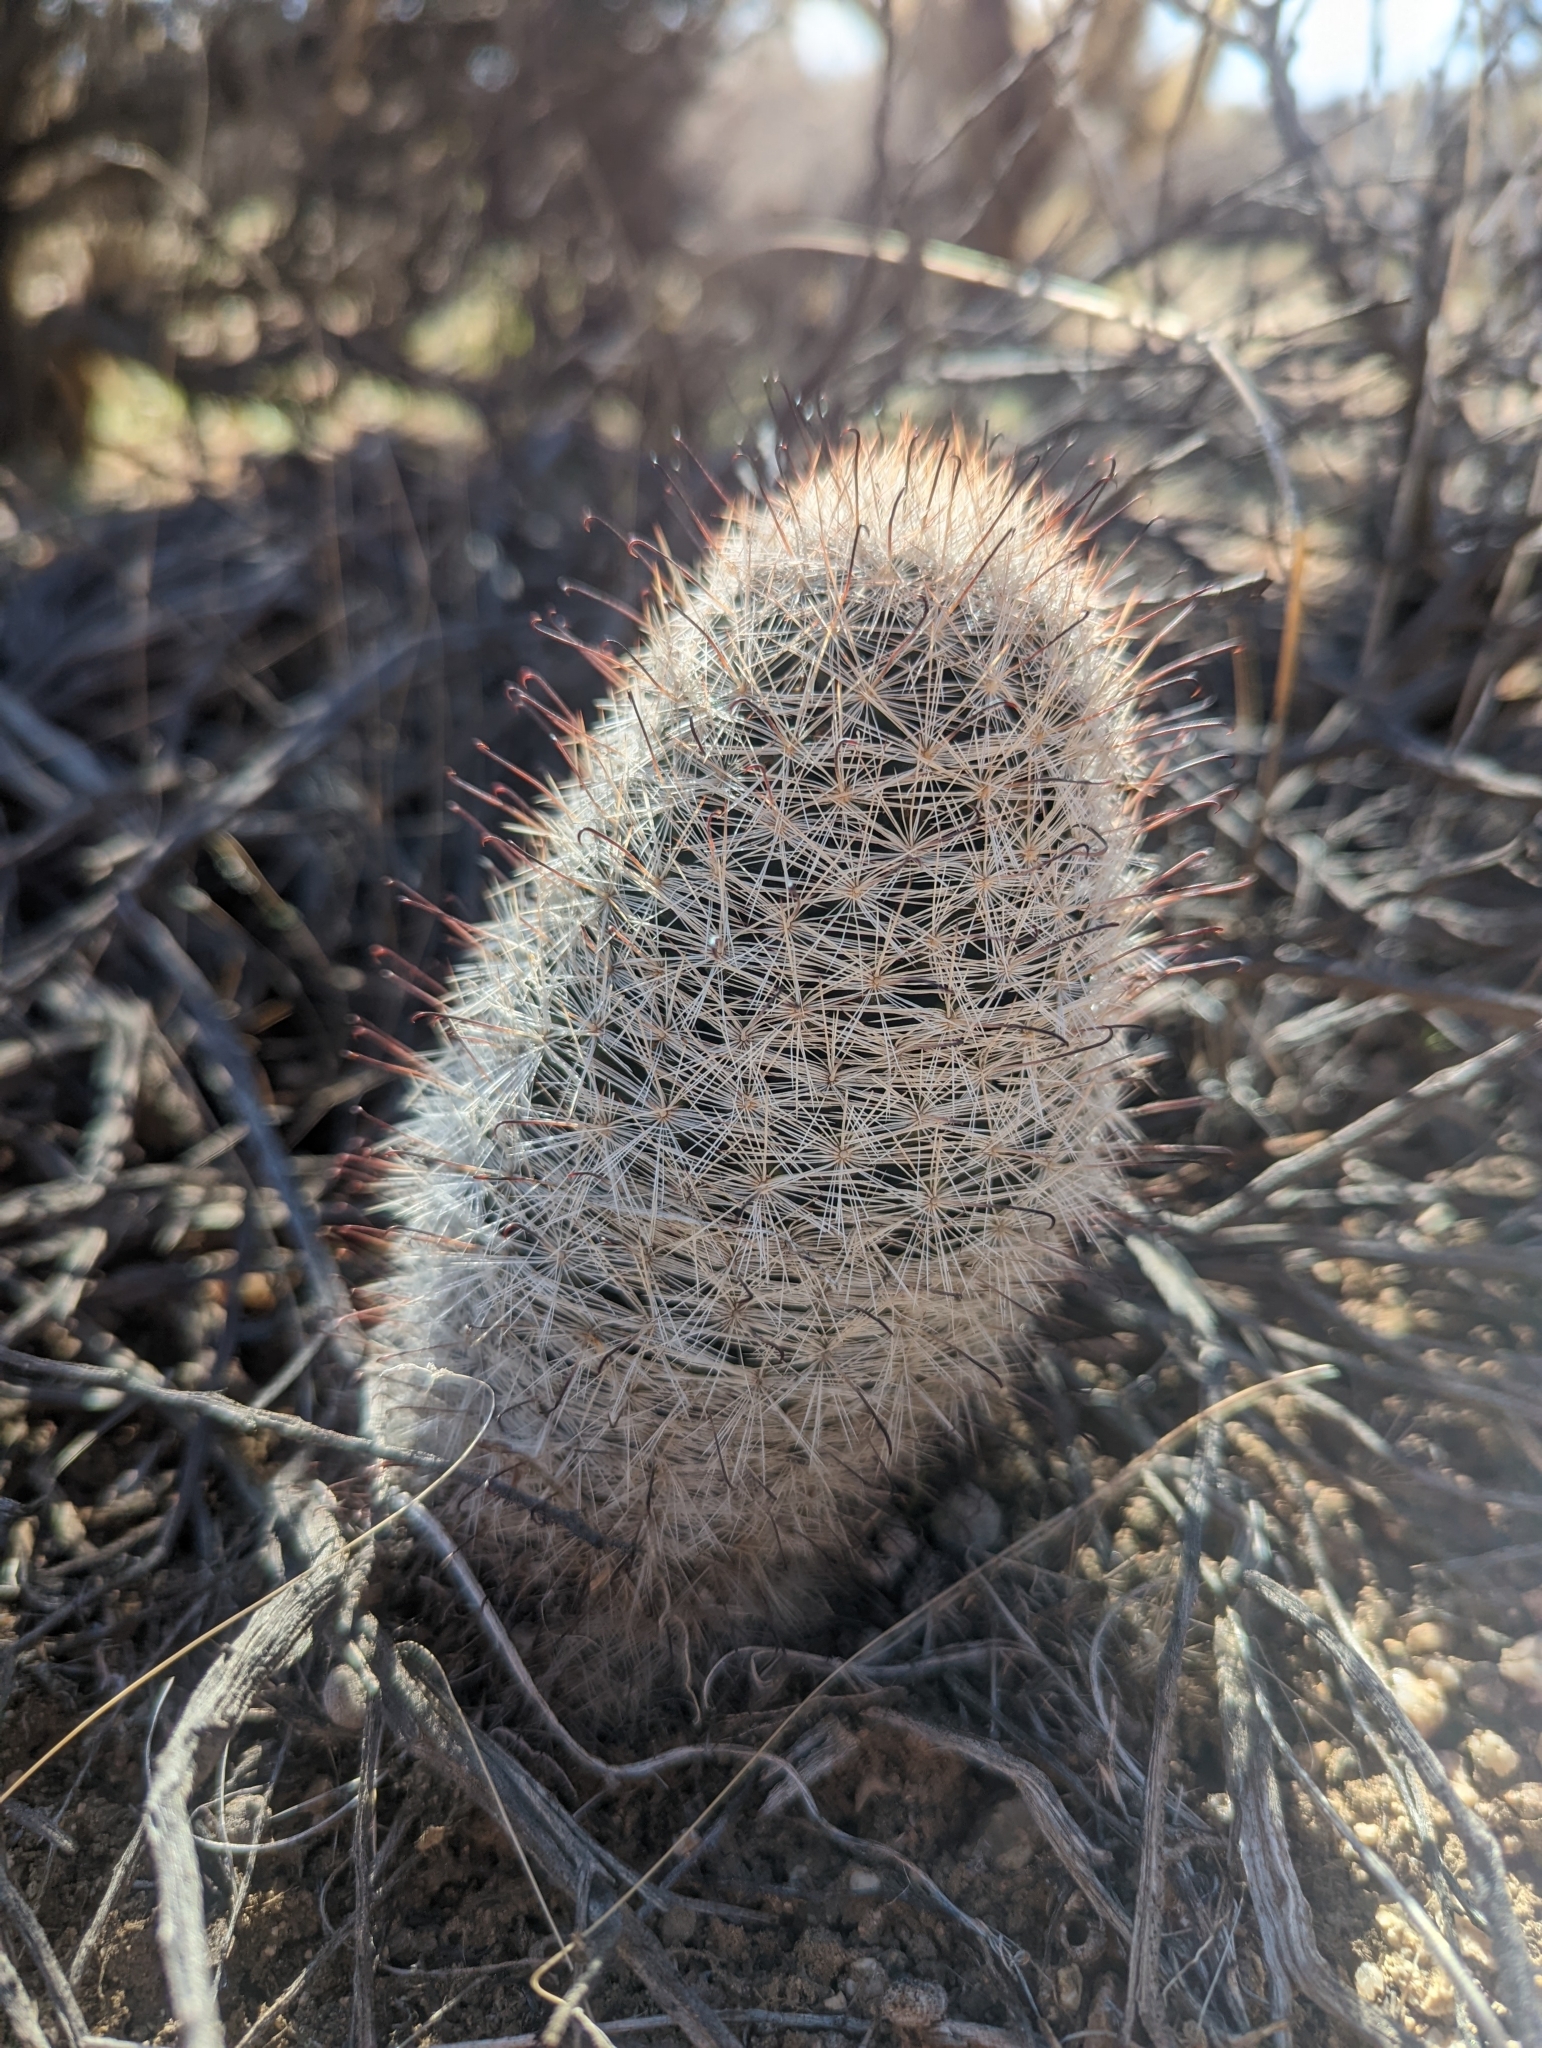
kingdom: Plantae
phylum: Tracheophyta
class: Magnoliopsida
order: Caryophyllales
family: Cactaceae
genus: Cochemiea
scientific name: Cochemiea tetrancistra
